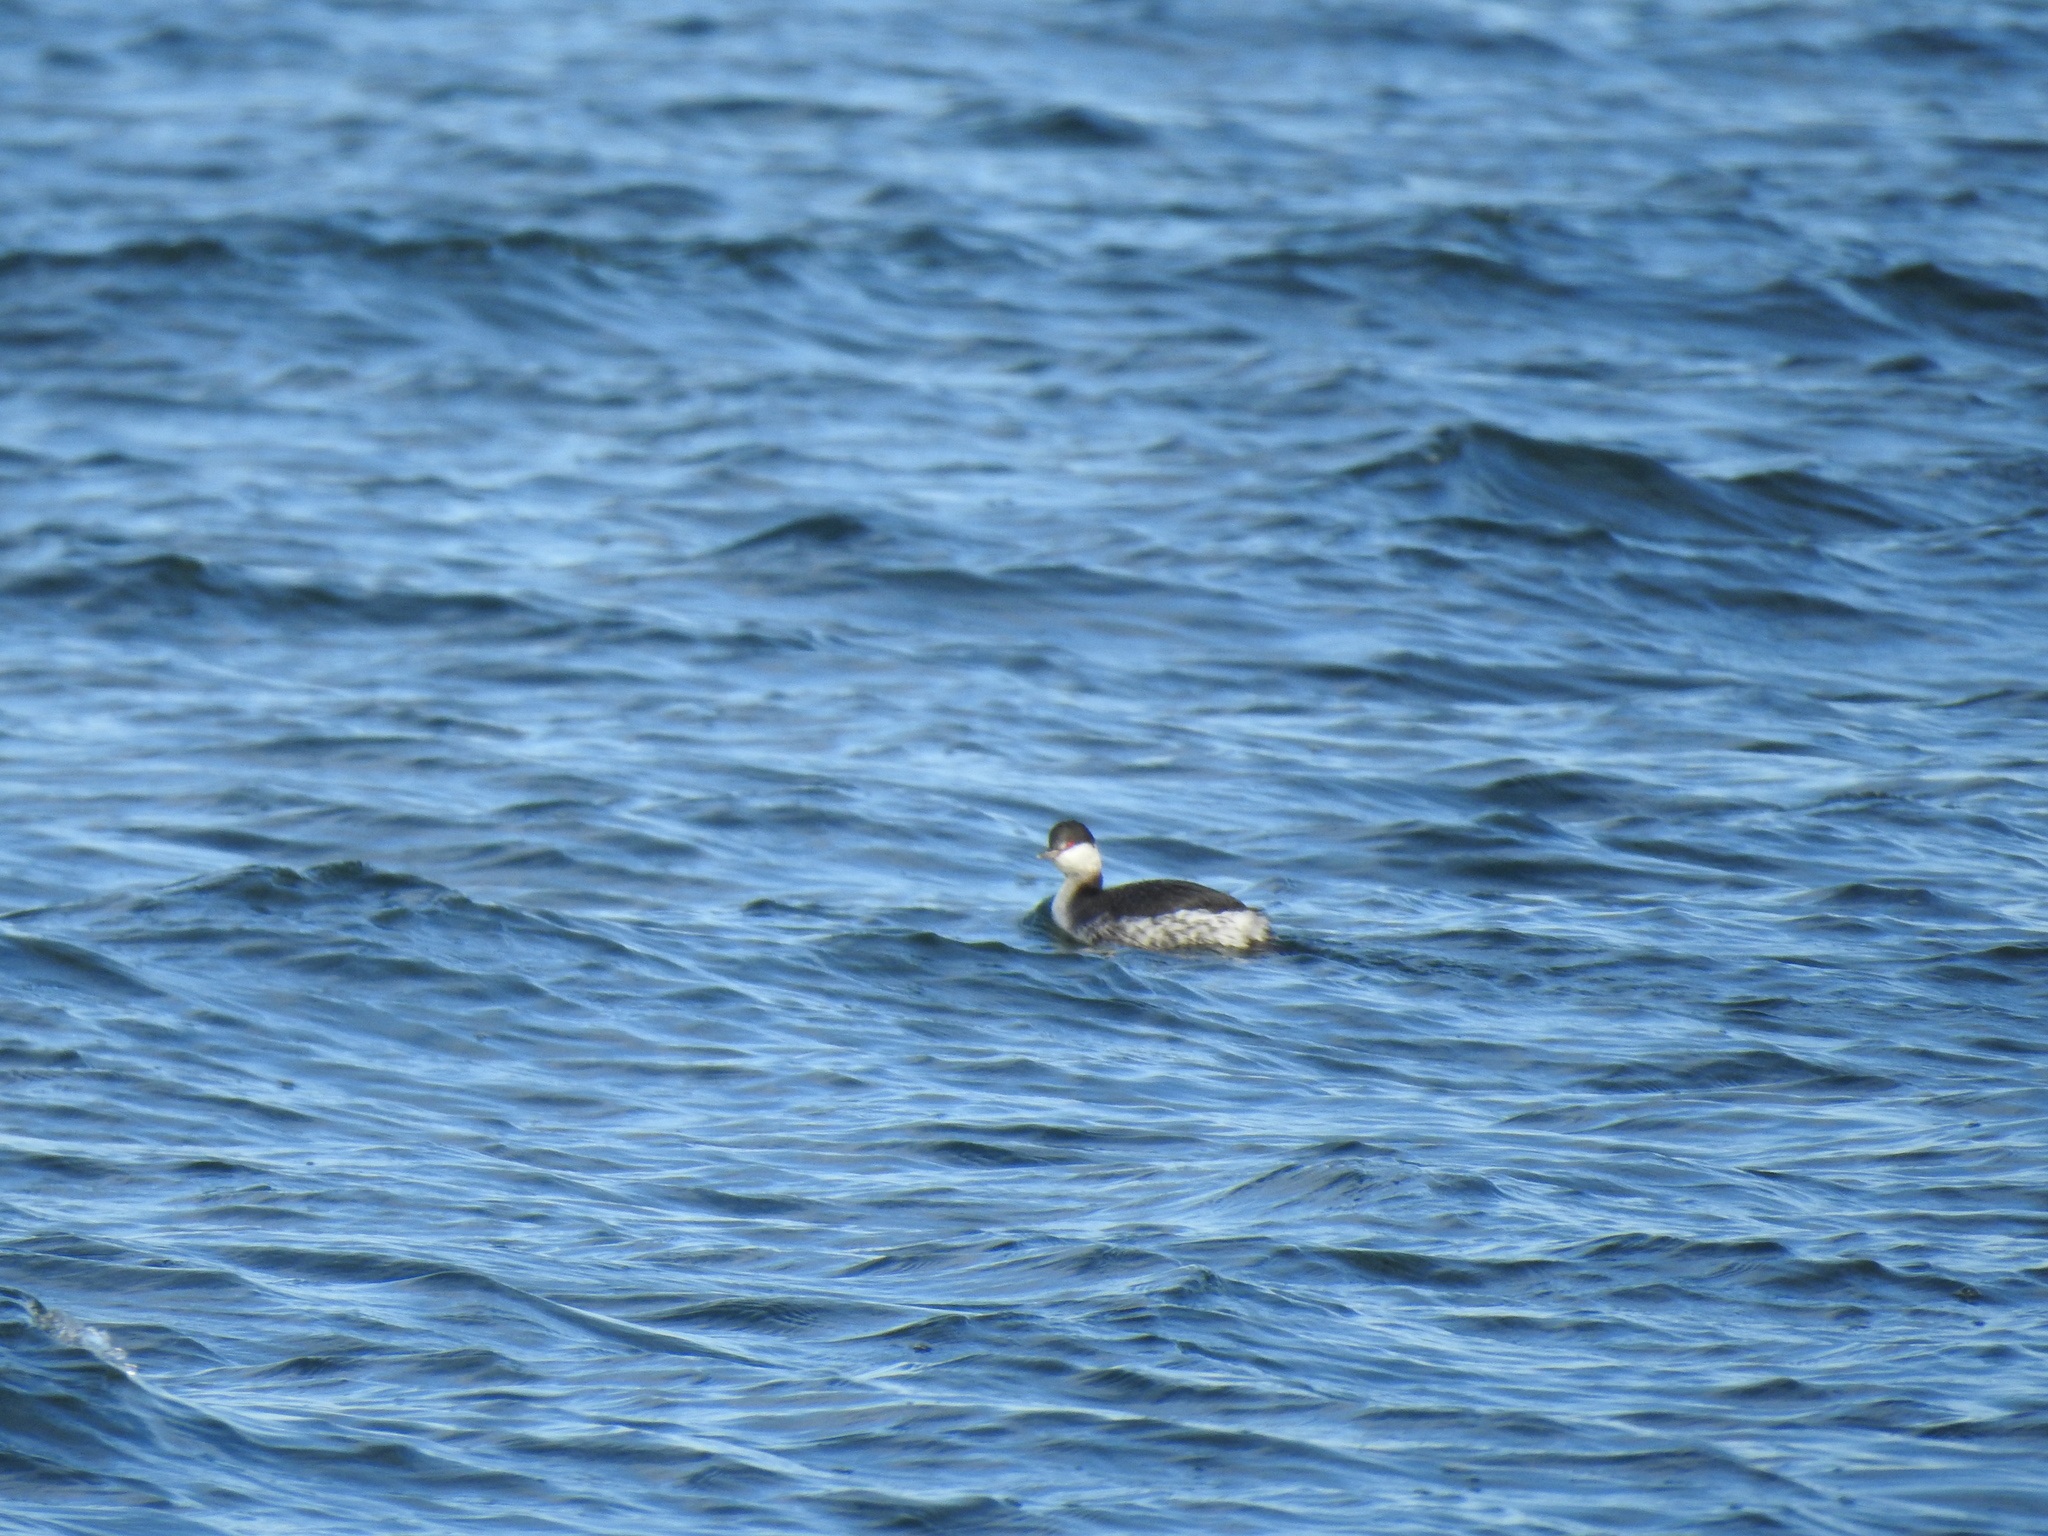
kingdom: Animalia
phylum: Chordata
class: Aves
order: Podicipediformes
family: Podicipedidae
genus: Podiceps
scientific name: Podiceps auritus
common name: Horned grebe
